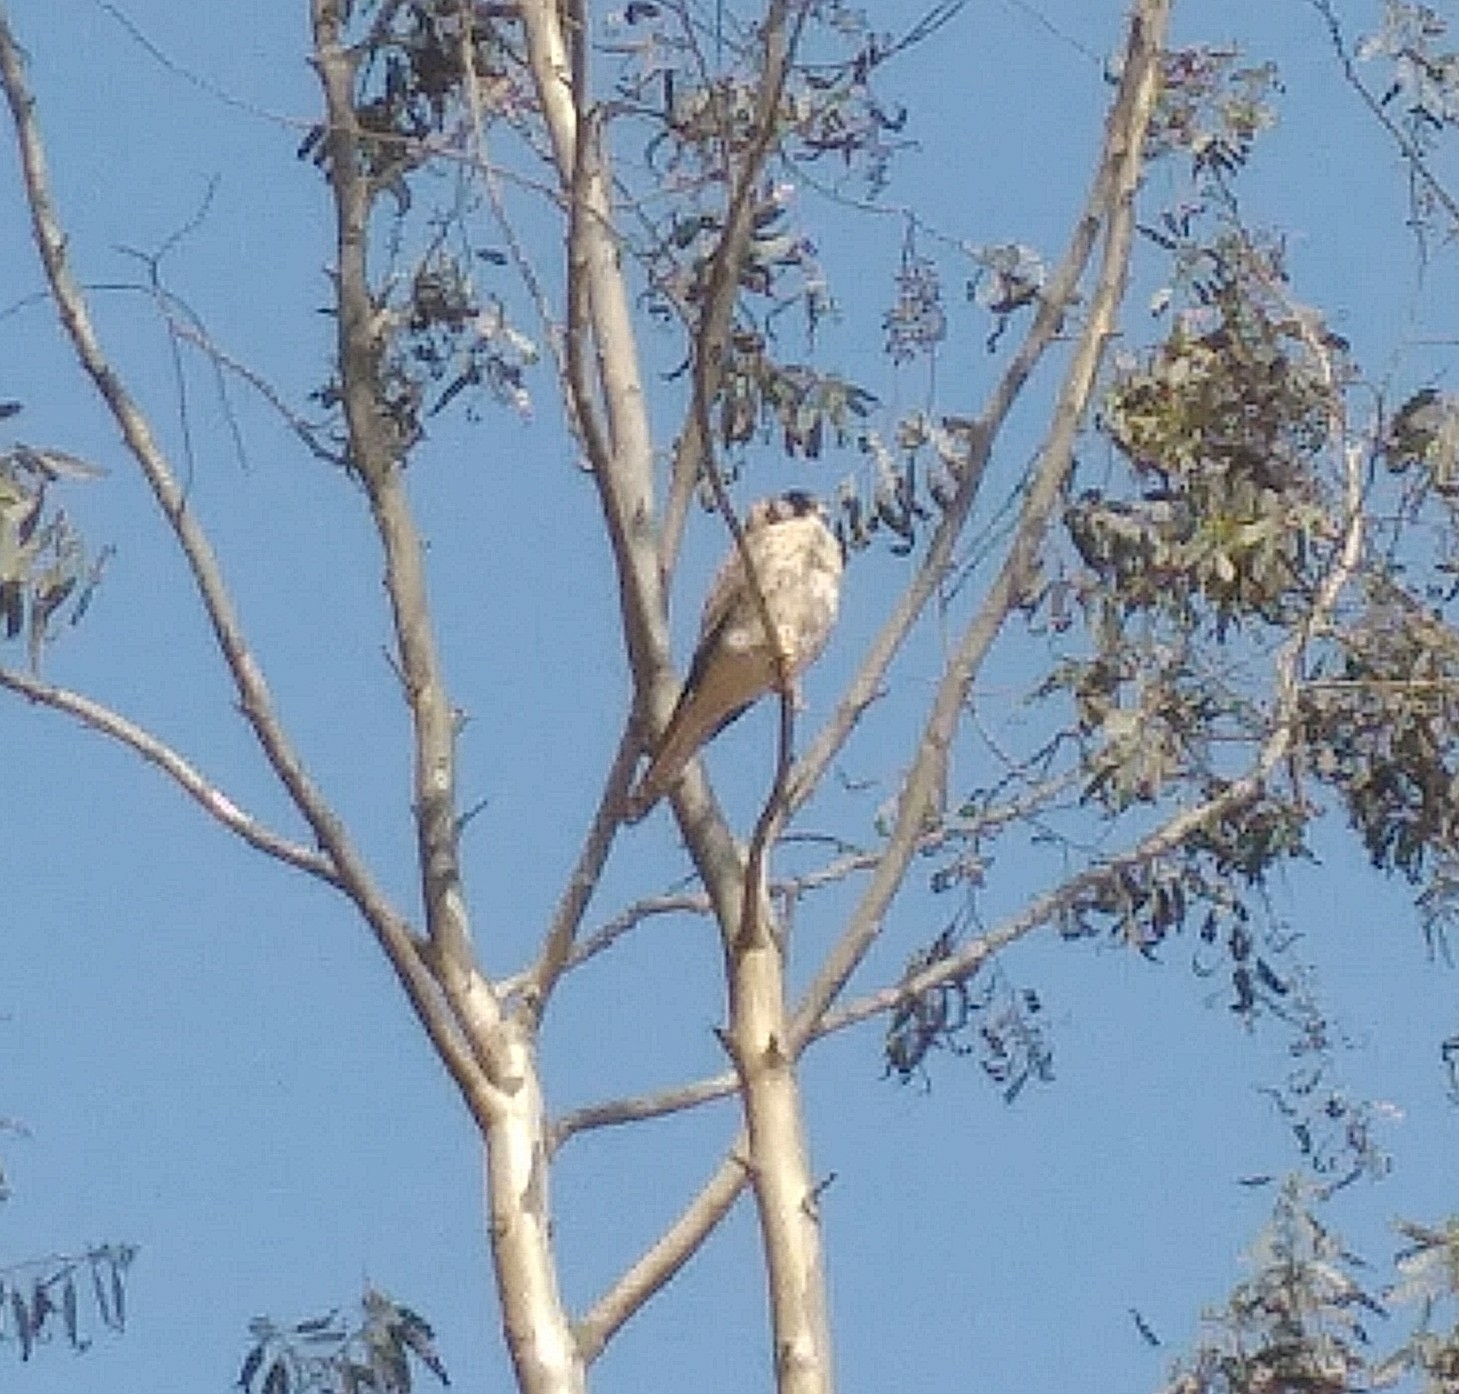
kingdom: Animalia
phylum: Chordata
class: Aves
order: Falconiformes
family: Falconidae
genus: Falco
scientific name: Falco sparverius
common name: American kestrel
